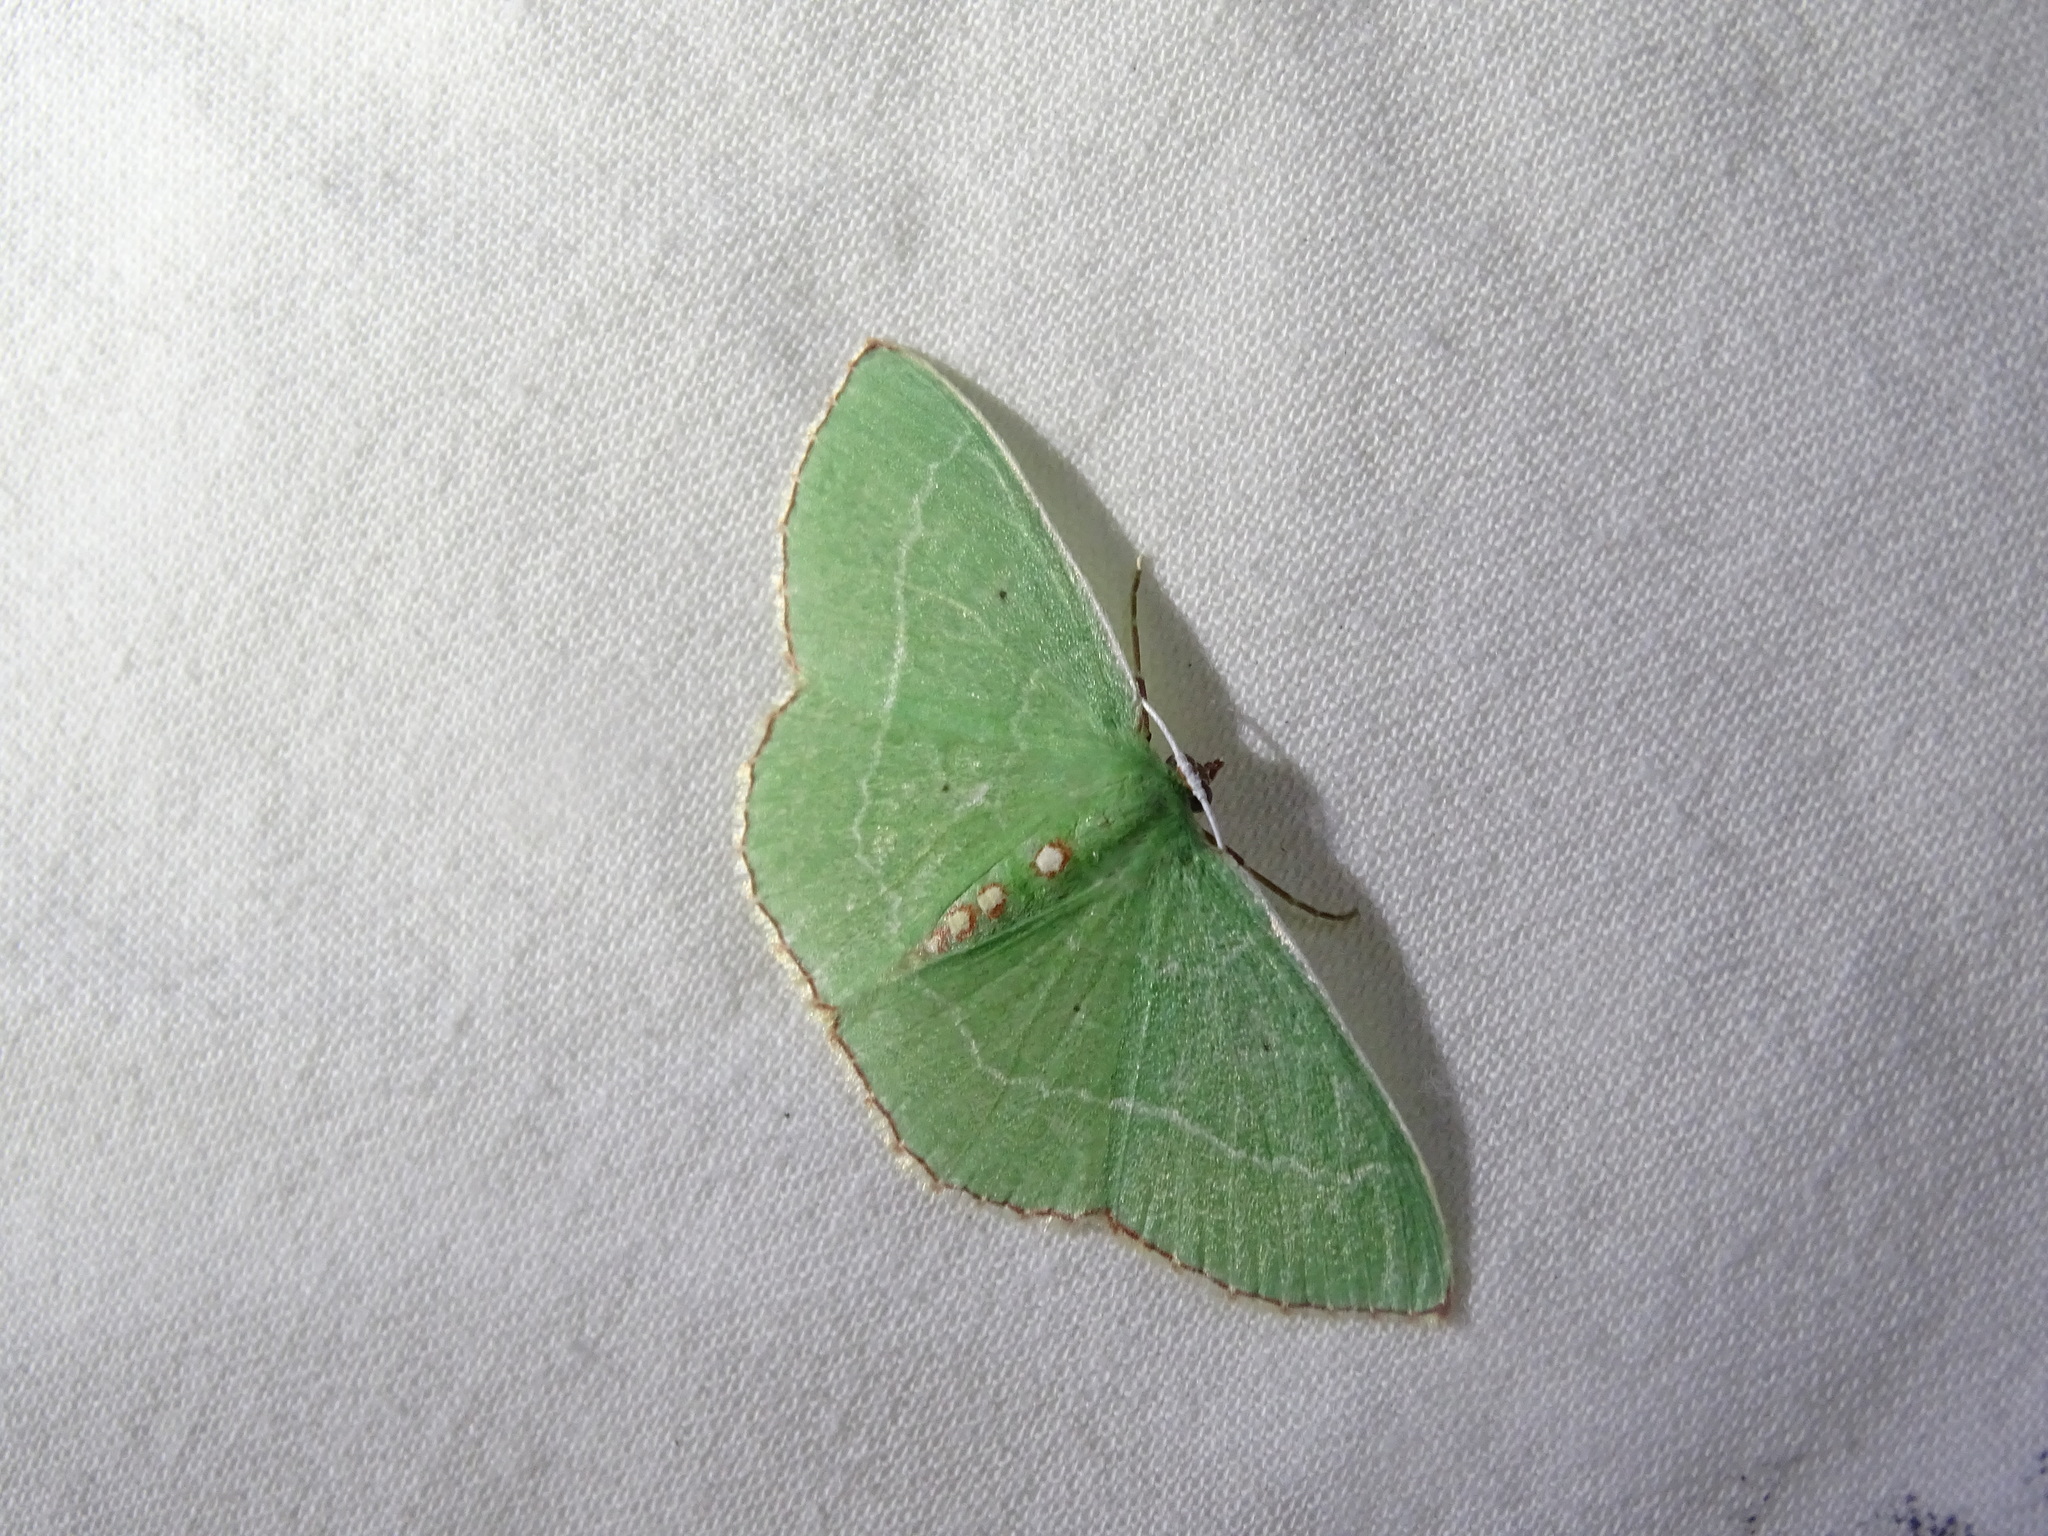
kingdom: Animalia
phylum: Arthropoda
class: Insecta
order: Lepidoptera
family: Geometridae
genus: Nemoria
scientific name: Nemoria lixaria
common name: Red-bordered emerald
